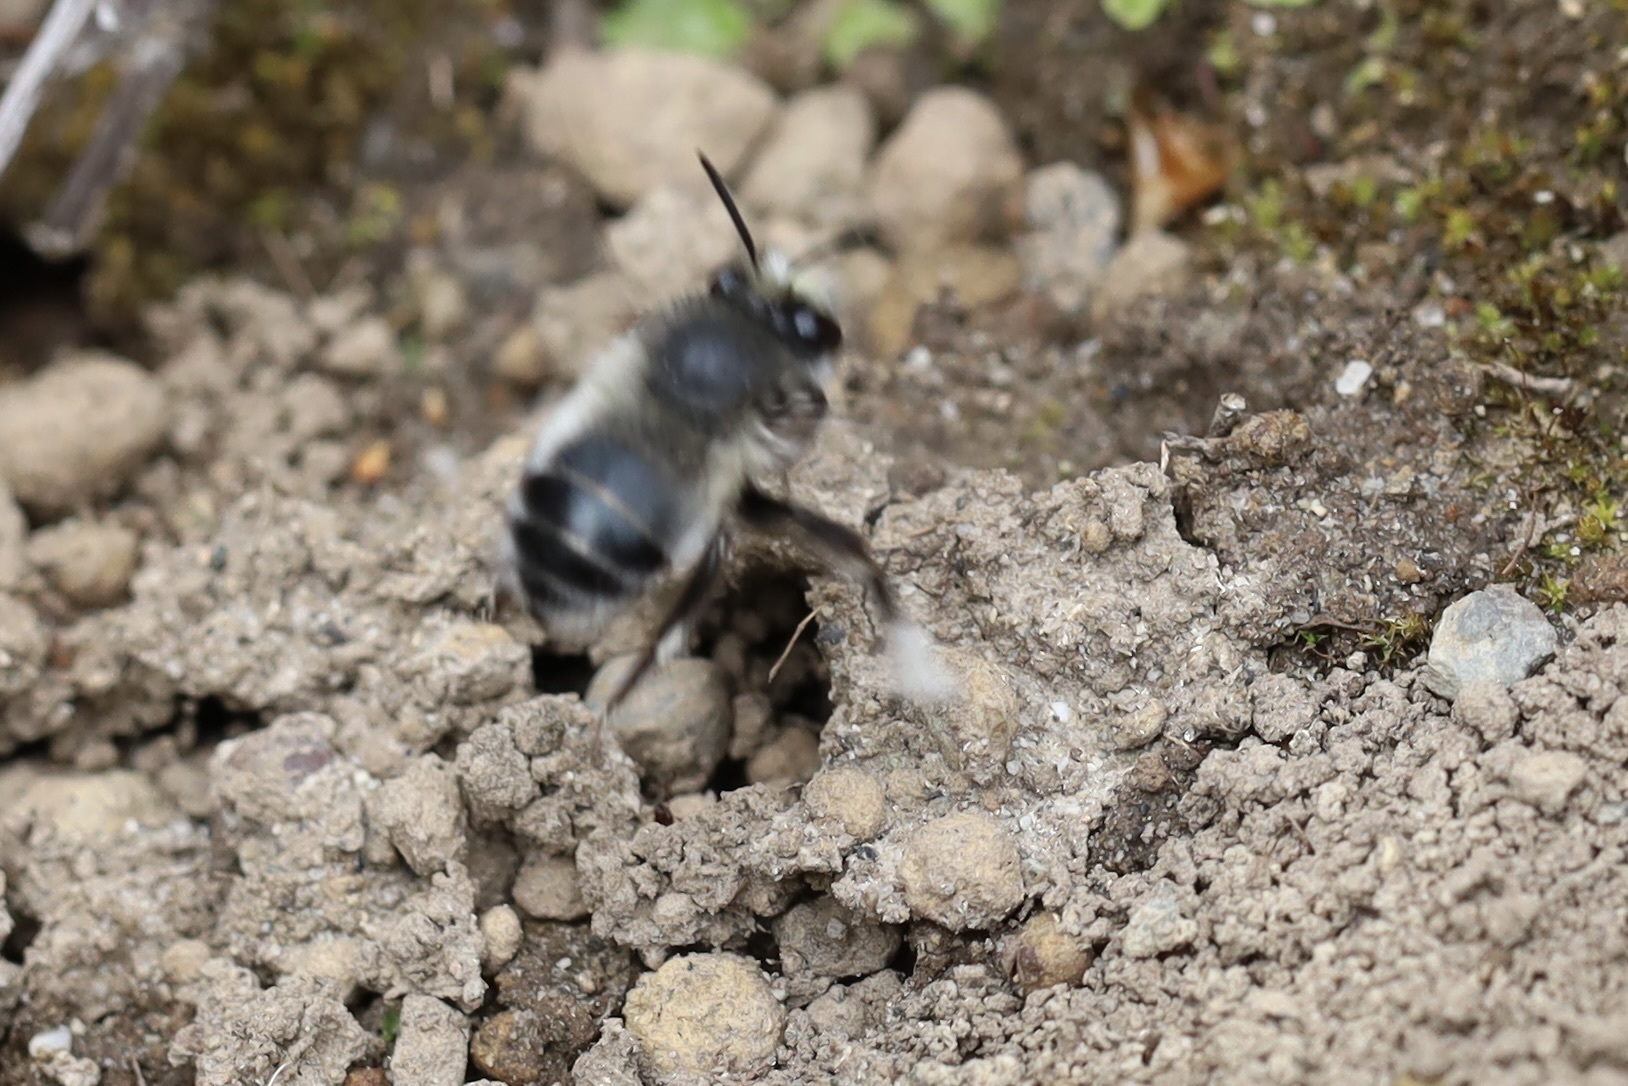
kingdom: Animalia
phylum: Arthropoda
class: Insecta
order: Hymenoptera
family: Apidae
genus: Anthophora
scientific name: Anthophora pacifica
